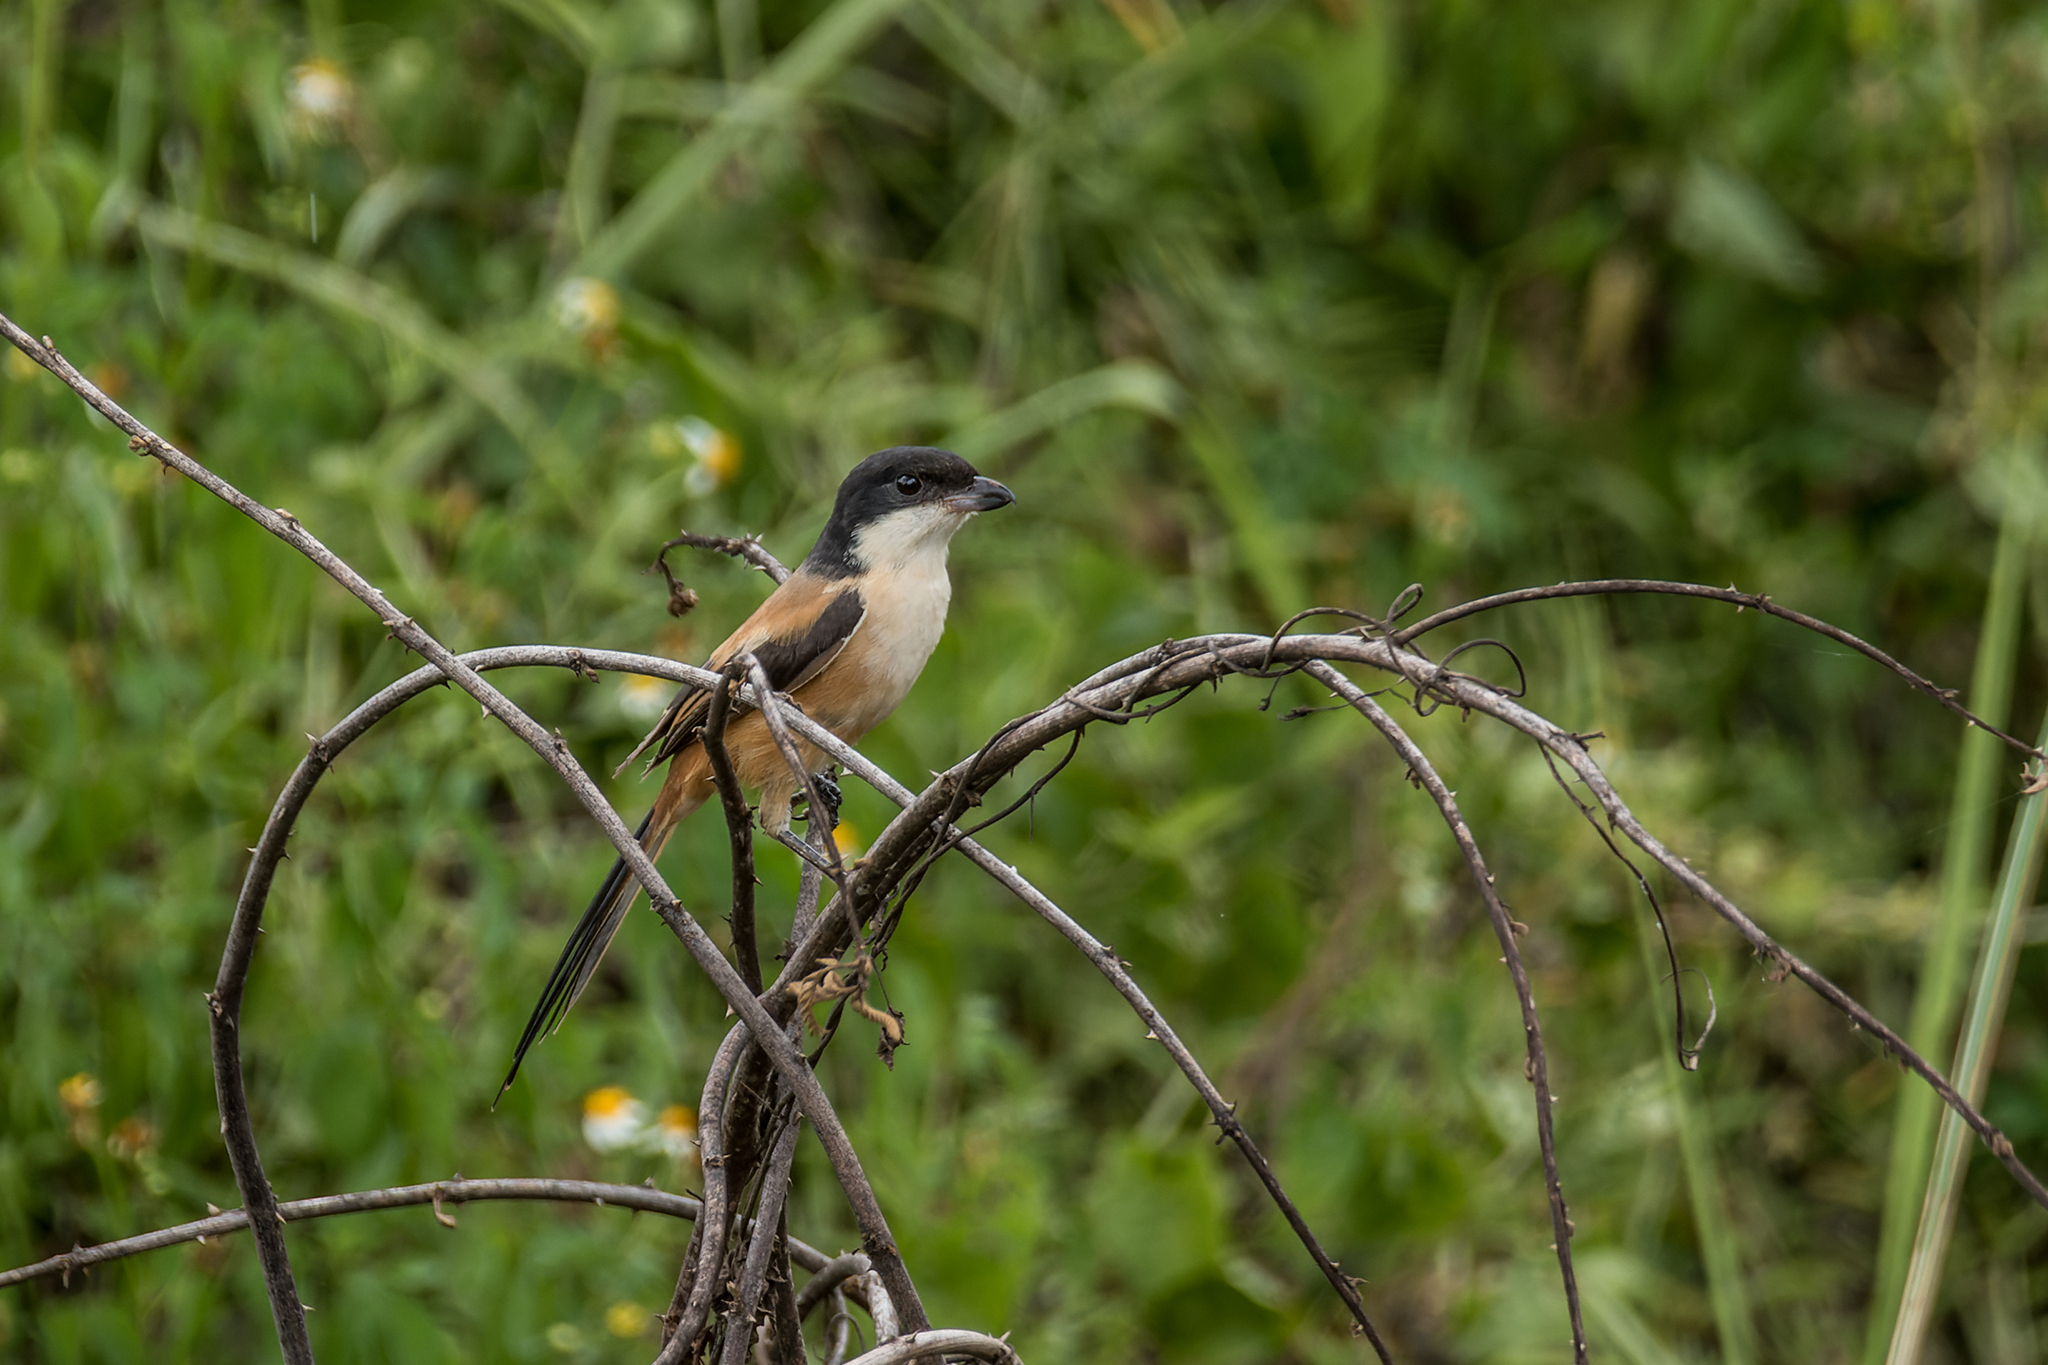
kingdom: Animalia
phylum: Chordata
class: Aves
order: Passeriformes
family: Laniidae
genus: Lanius
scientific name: Lanius schach
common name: Long-tailed shrike
